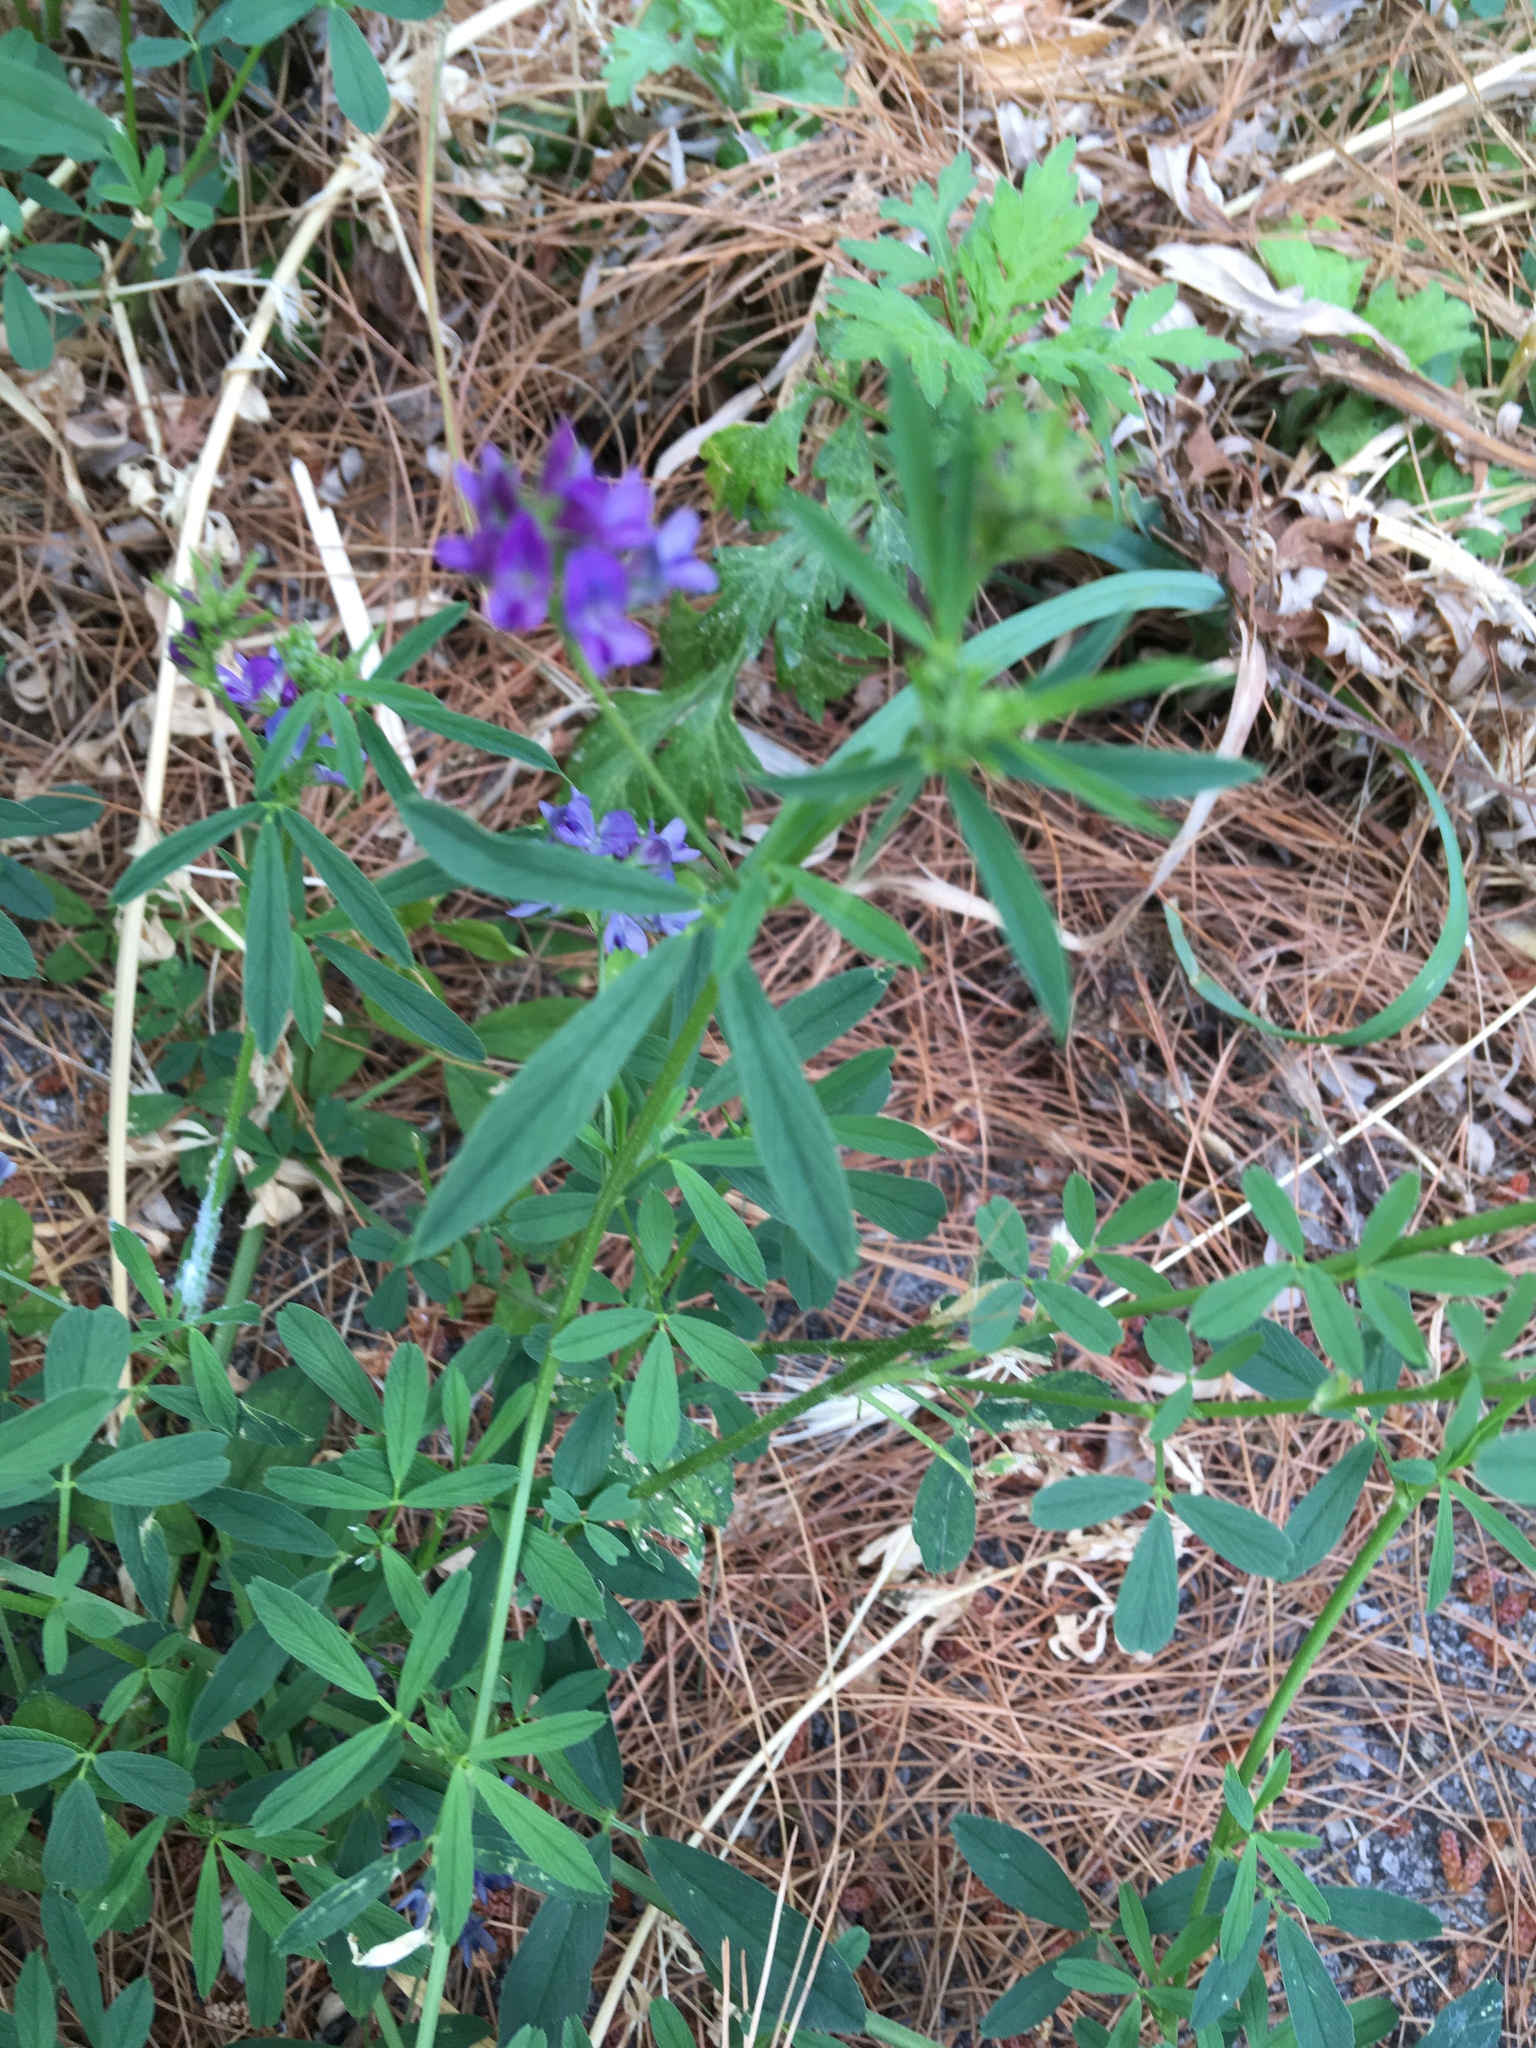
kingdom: Plantae
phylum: Tracheophyta
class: Magnoliopsida
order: Fabales
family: Fabaceae
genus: Medicago
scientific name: Medicago sativa
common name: Alfalfa
